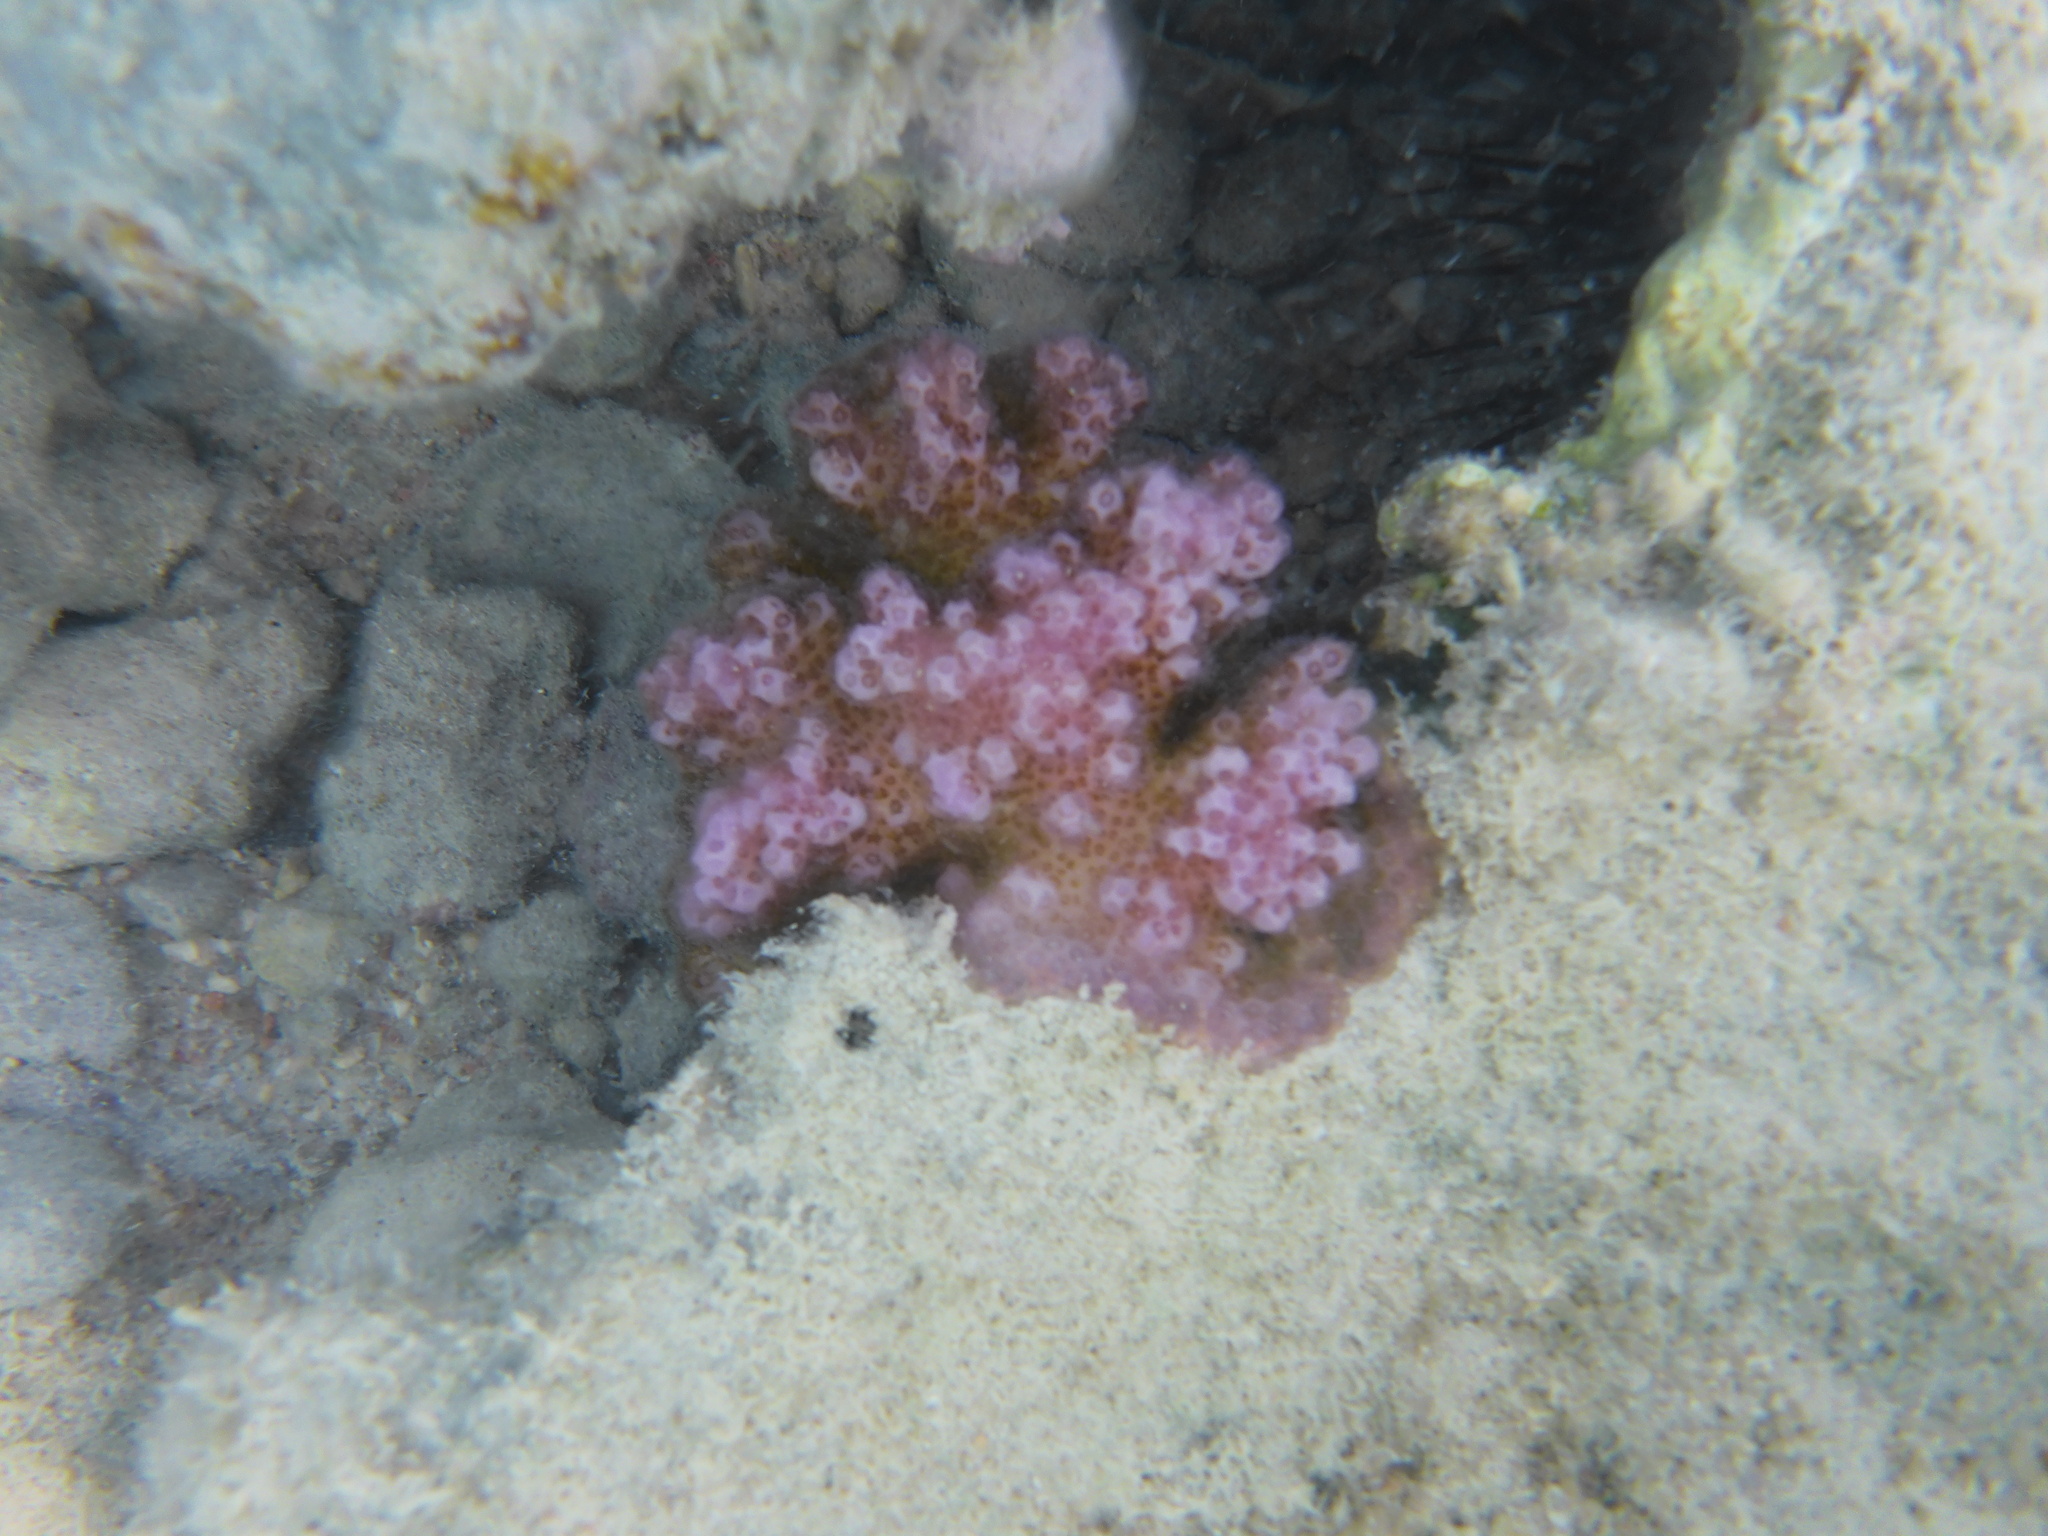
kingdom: Animalia
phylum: Cnidaria
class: Anthozoa
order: Scleractinia
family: Pocilloporidae
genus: Pocillopora
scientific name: Pocillopora verrucosa
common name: Cauliflower coral
